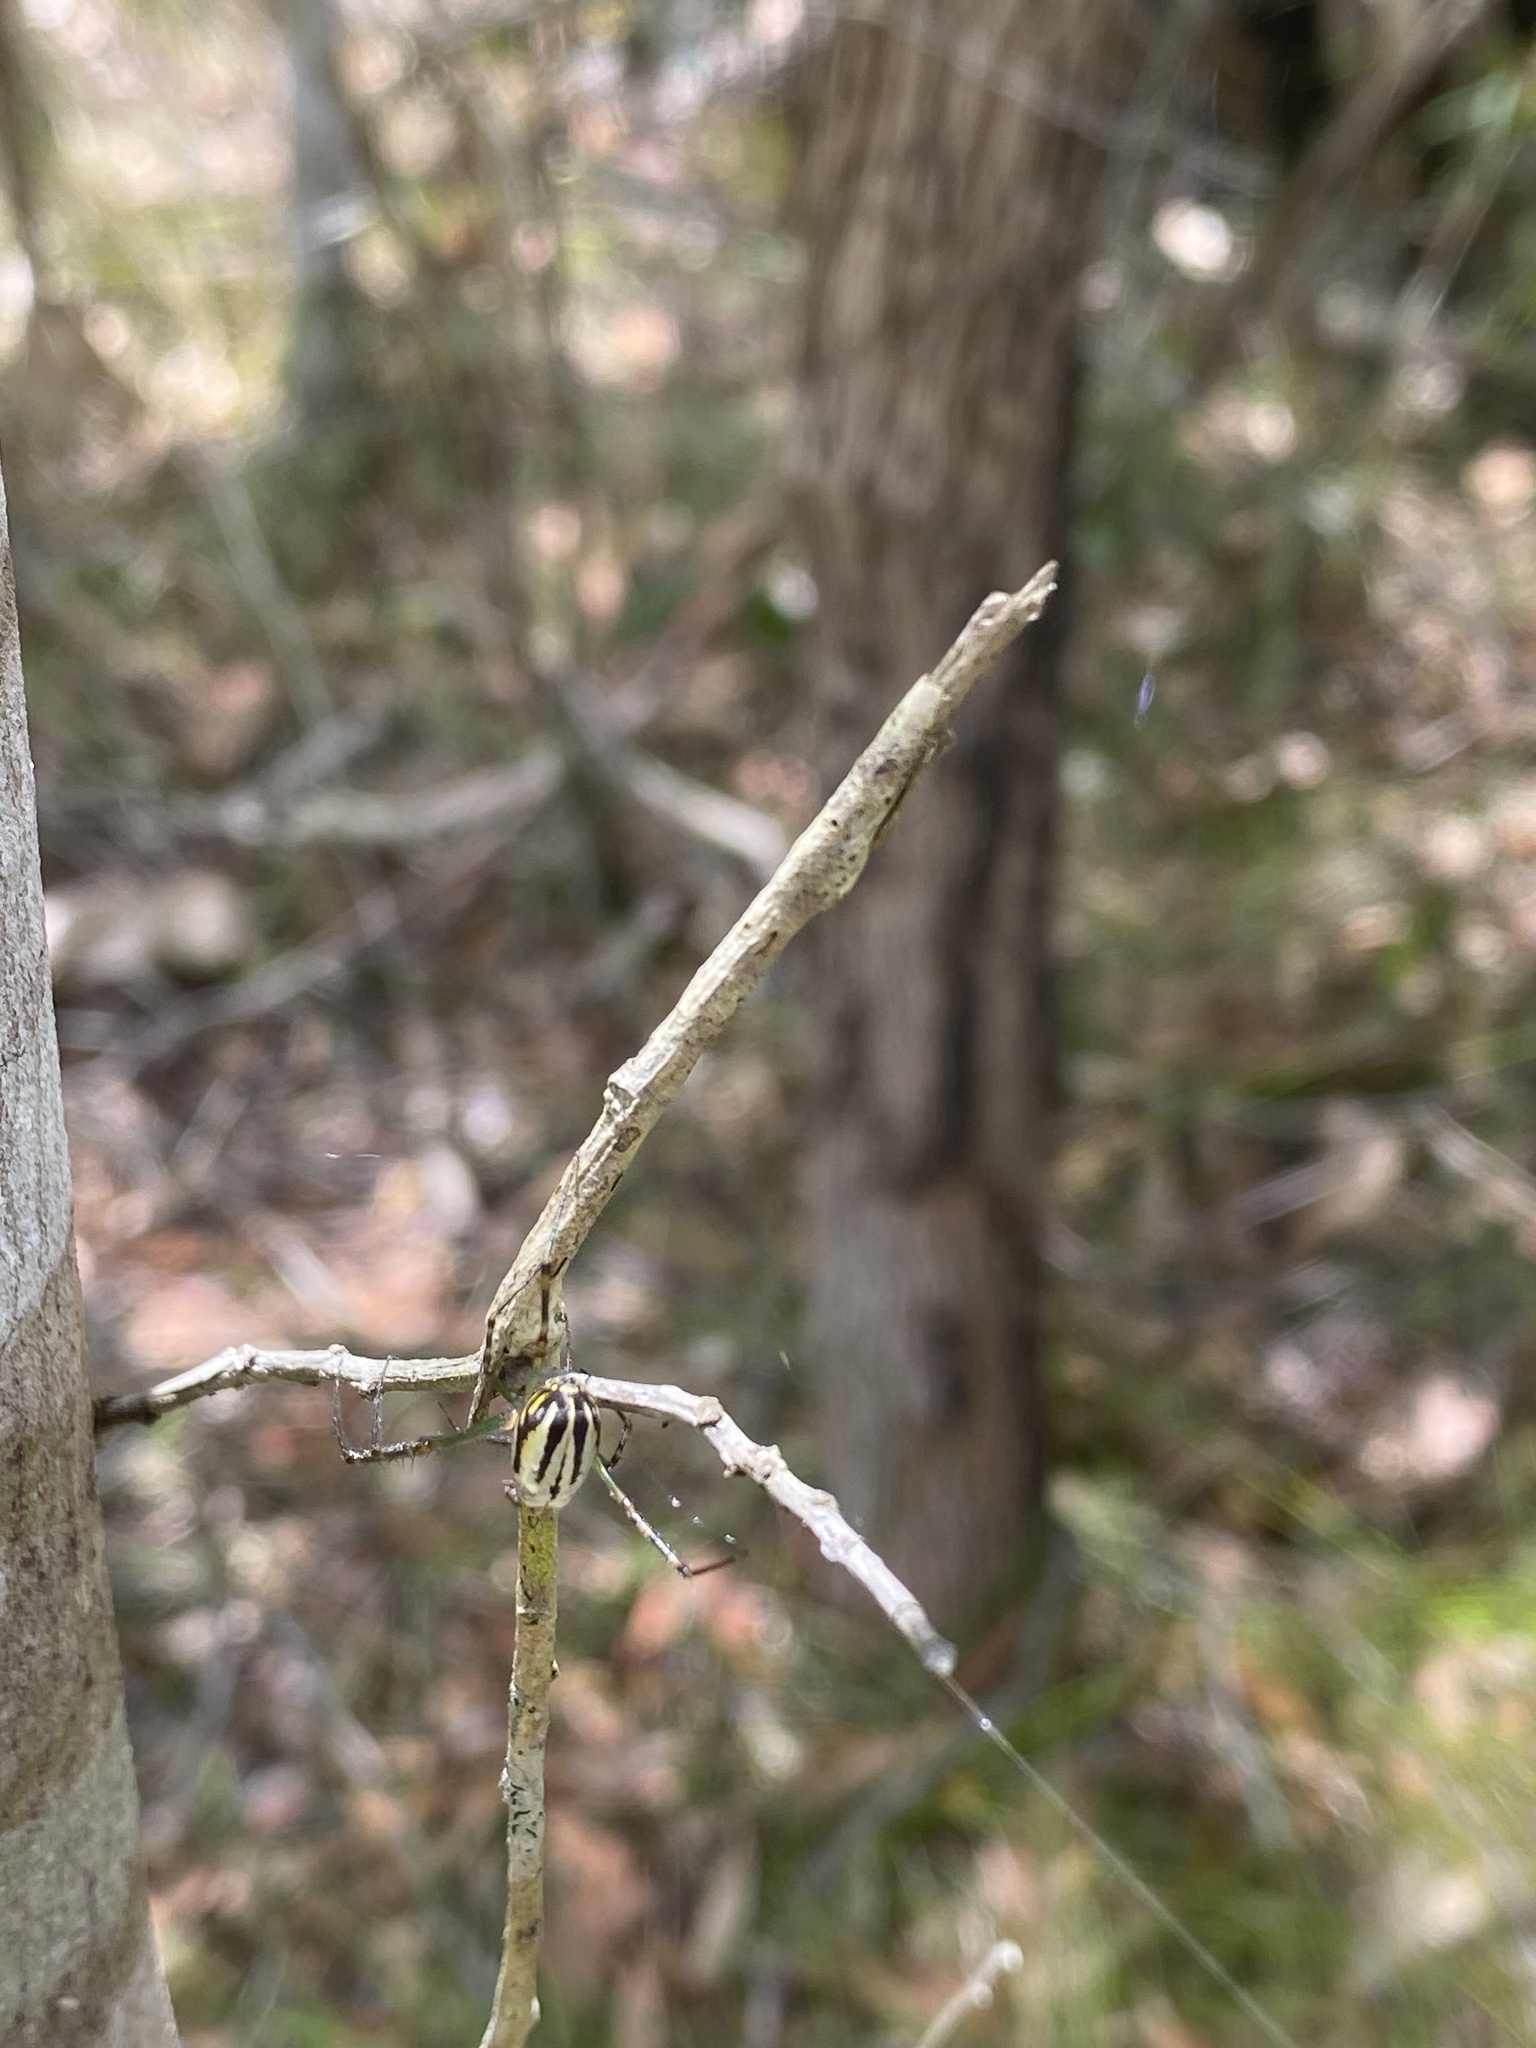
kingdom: Animalia
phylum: Arthropoda
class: Arachnida
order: Araneae
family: Tetragnathidae
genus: Leucauge
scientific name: Leucauge dromedaria
